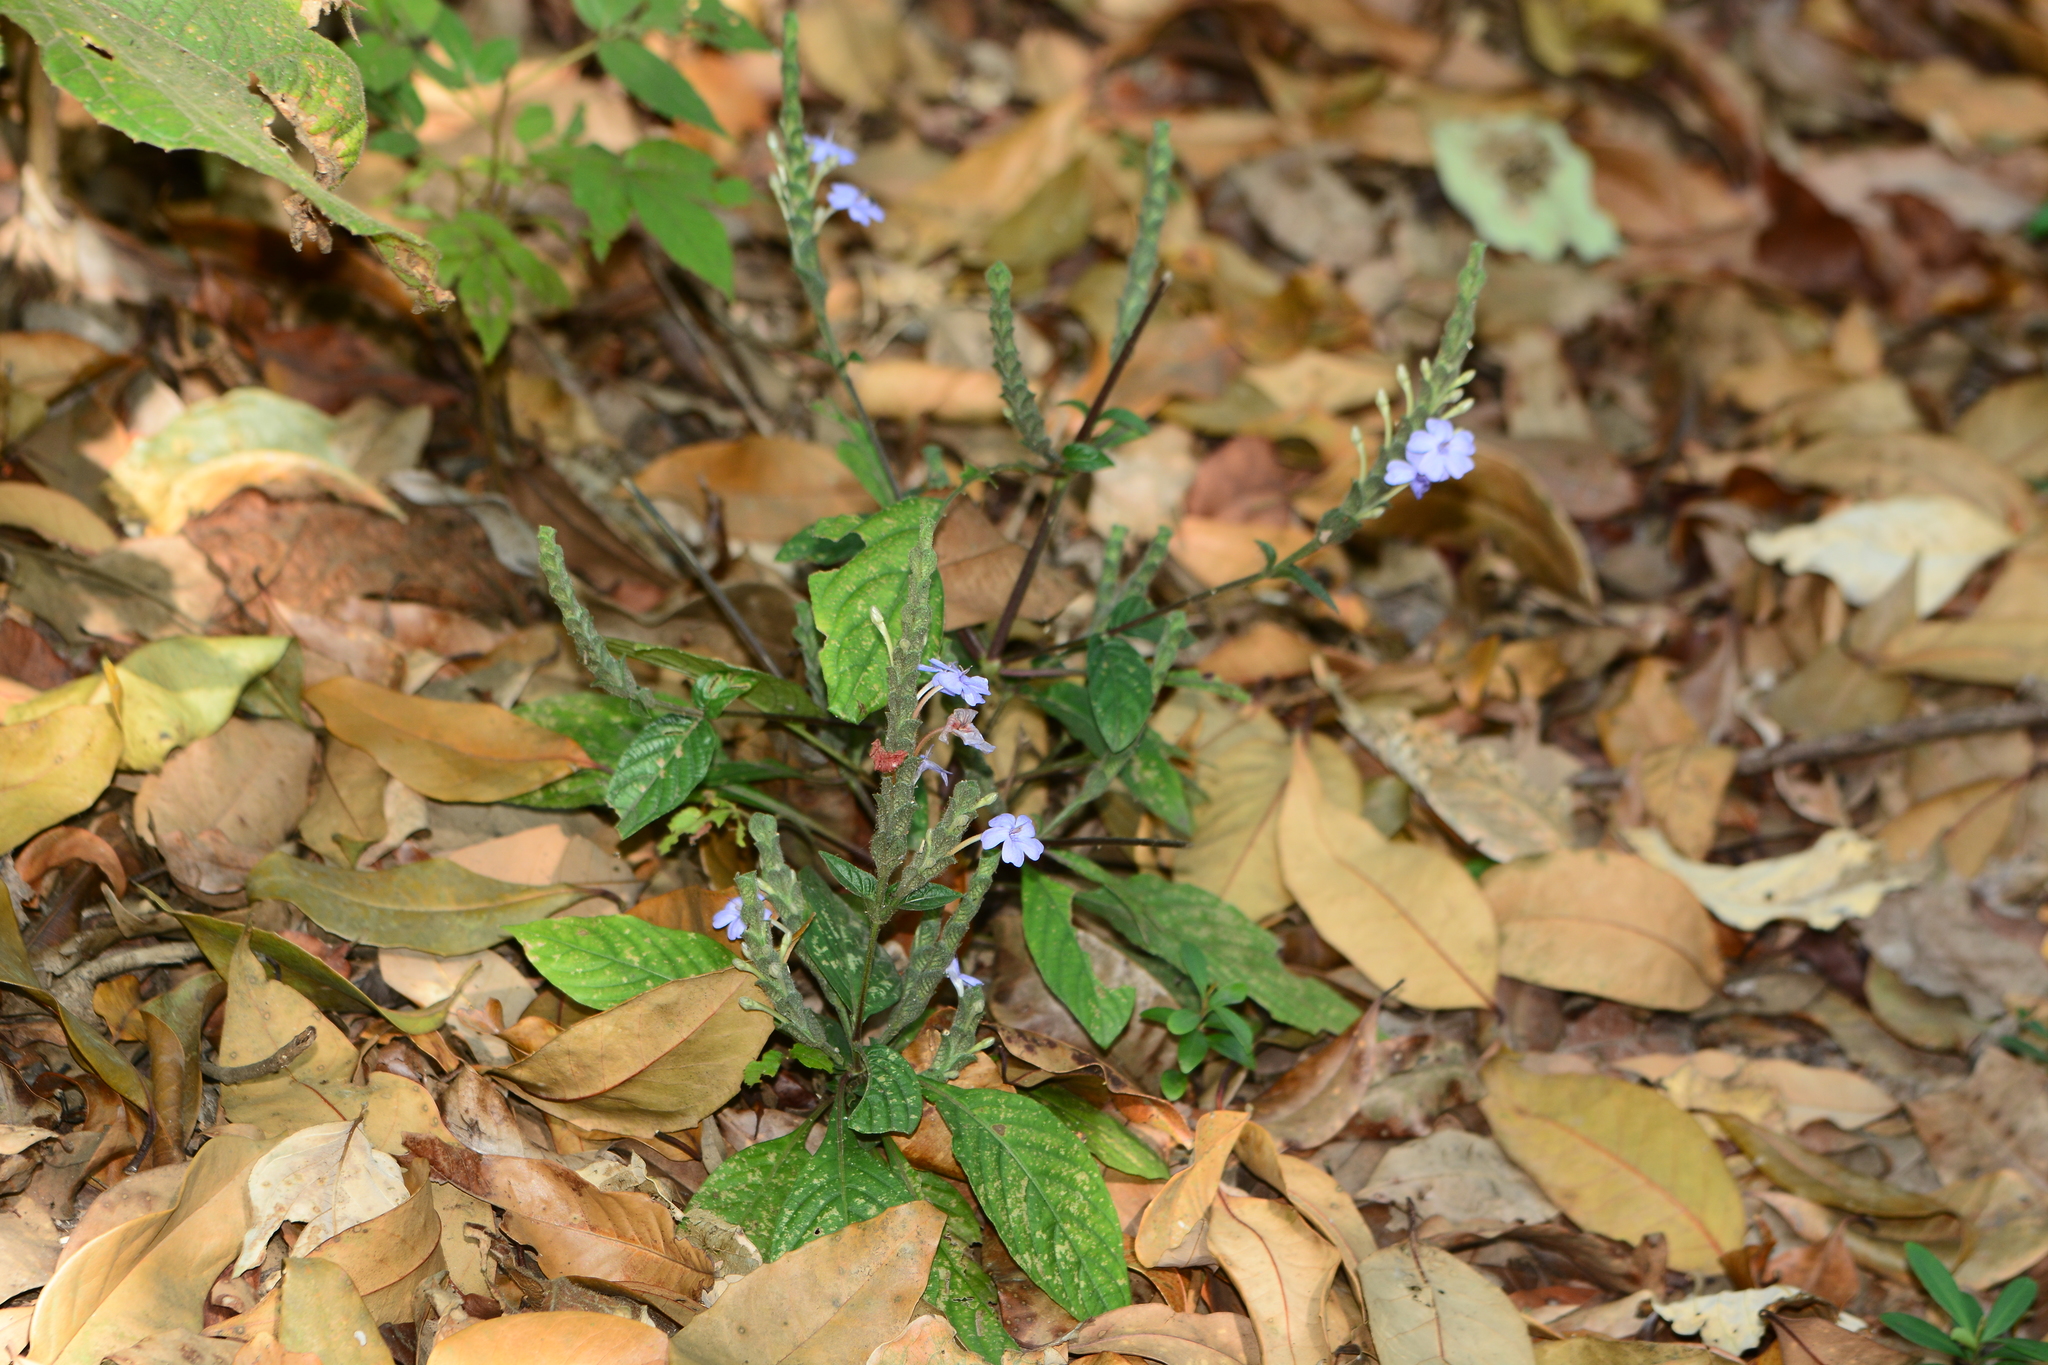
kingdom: Plantae
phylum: Tracheophyta
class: Magnoliopsida
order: Lamiales
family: Acanthaceae
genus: Eranthemum
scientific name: Eranthemum roseum
